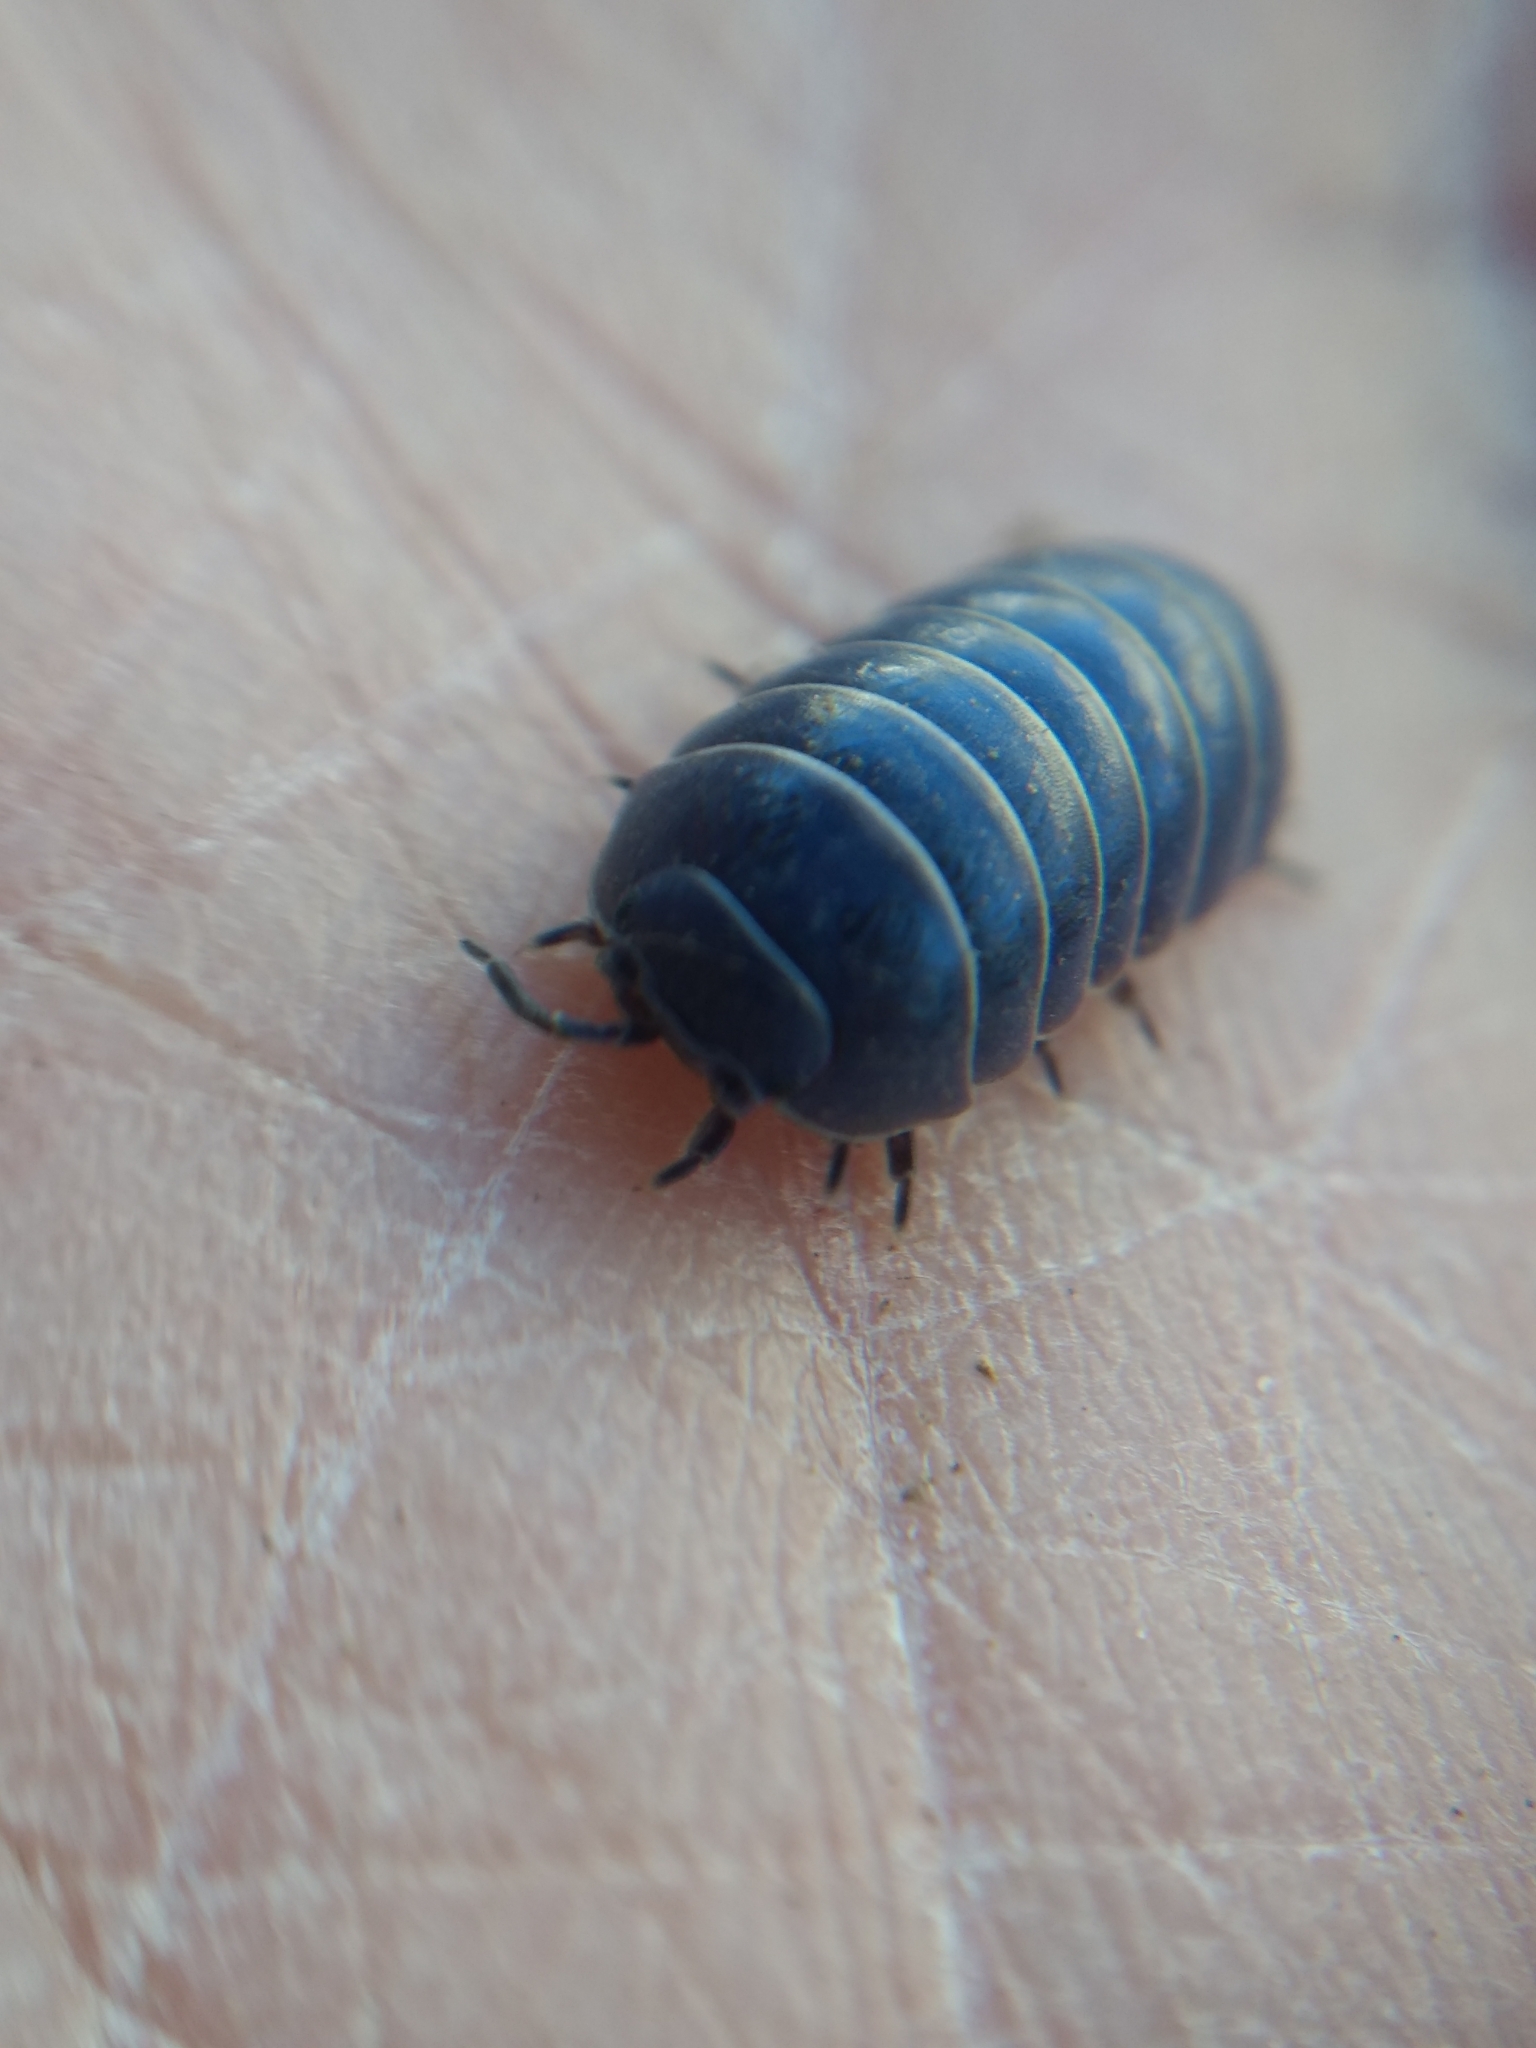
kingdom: Animalia
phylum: Arthropoda
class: Malacostraca
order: Isopoda
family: Armadillidiidae
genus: Armadillidium
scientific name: Armadillidium vulgare
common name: Common pill woodlouse
